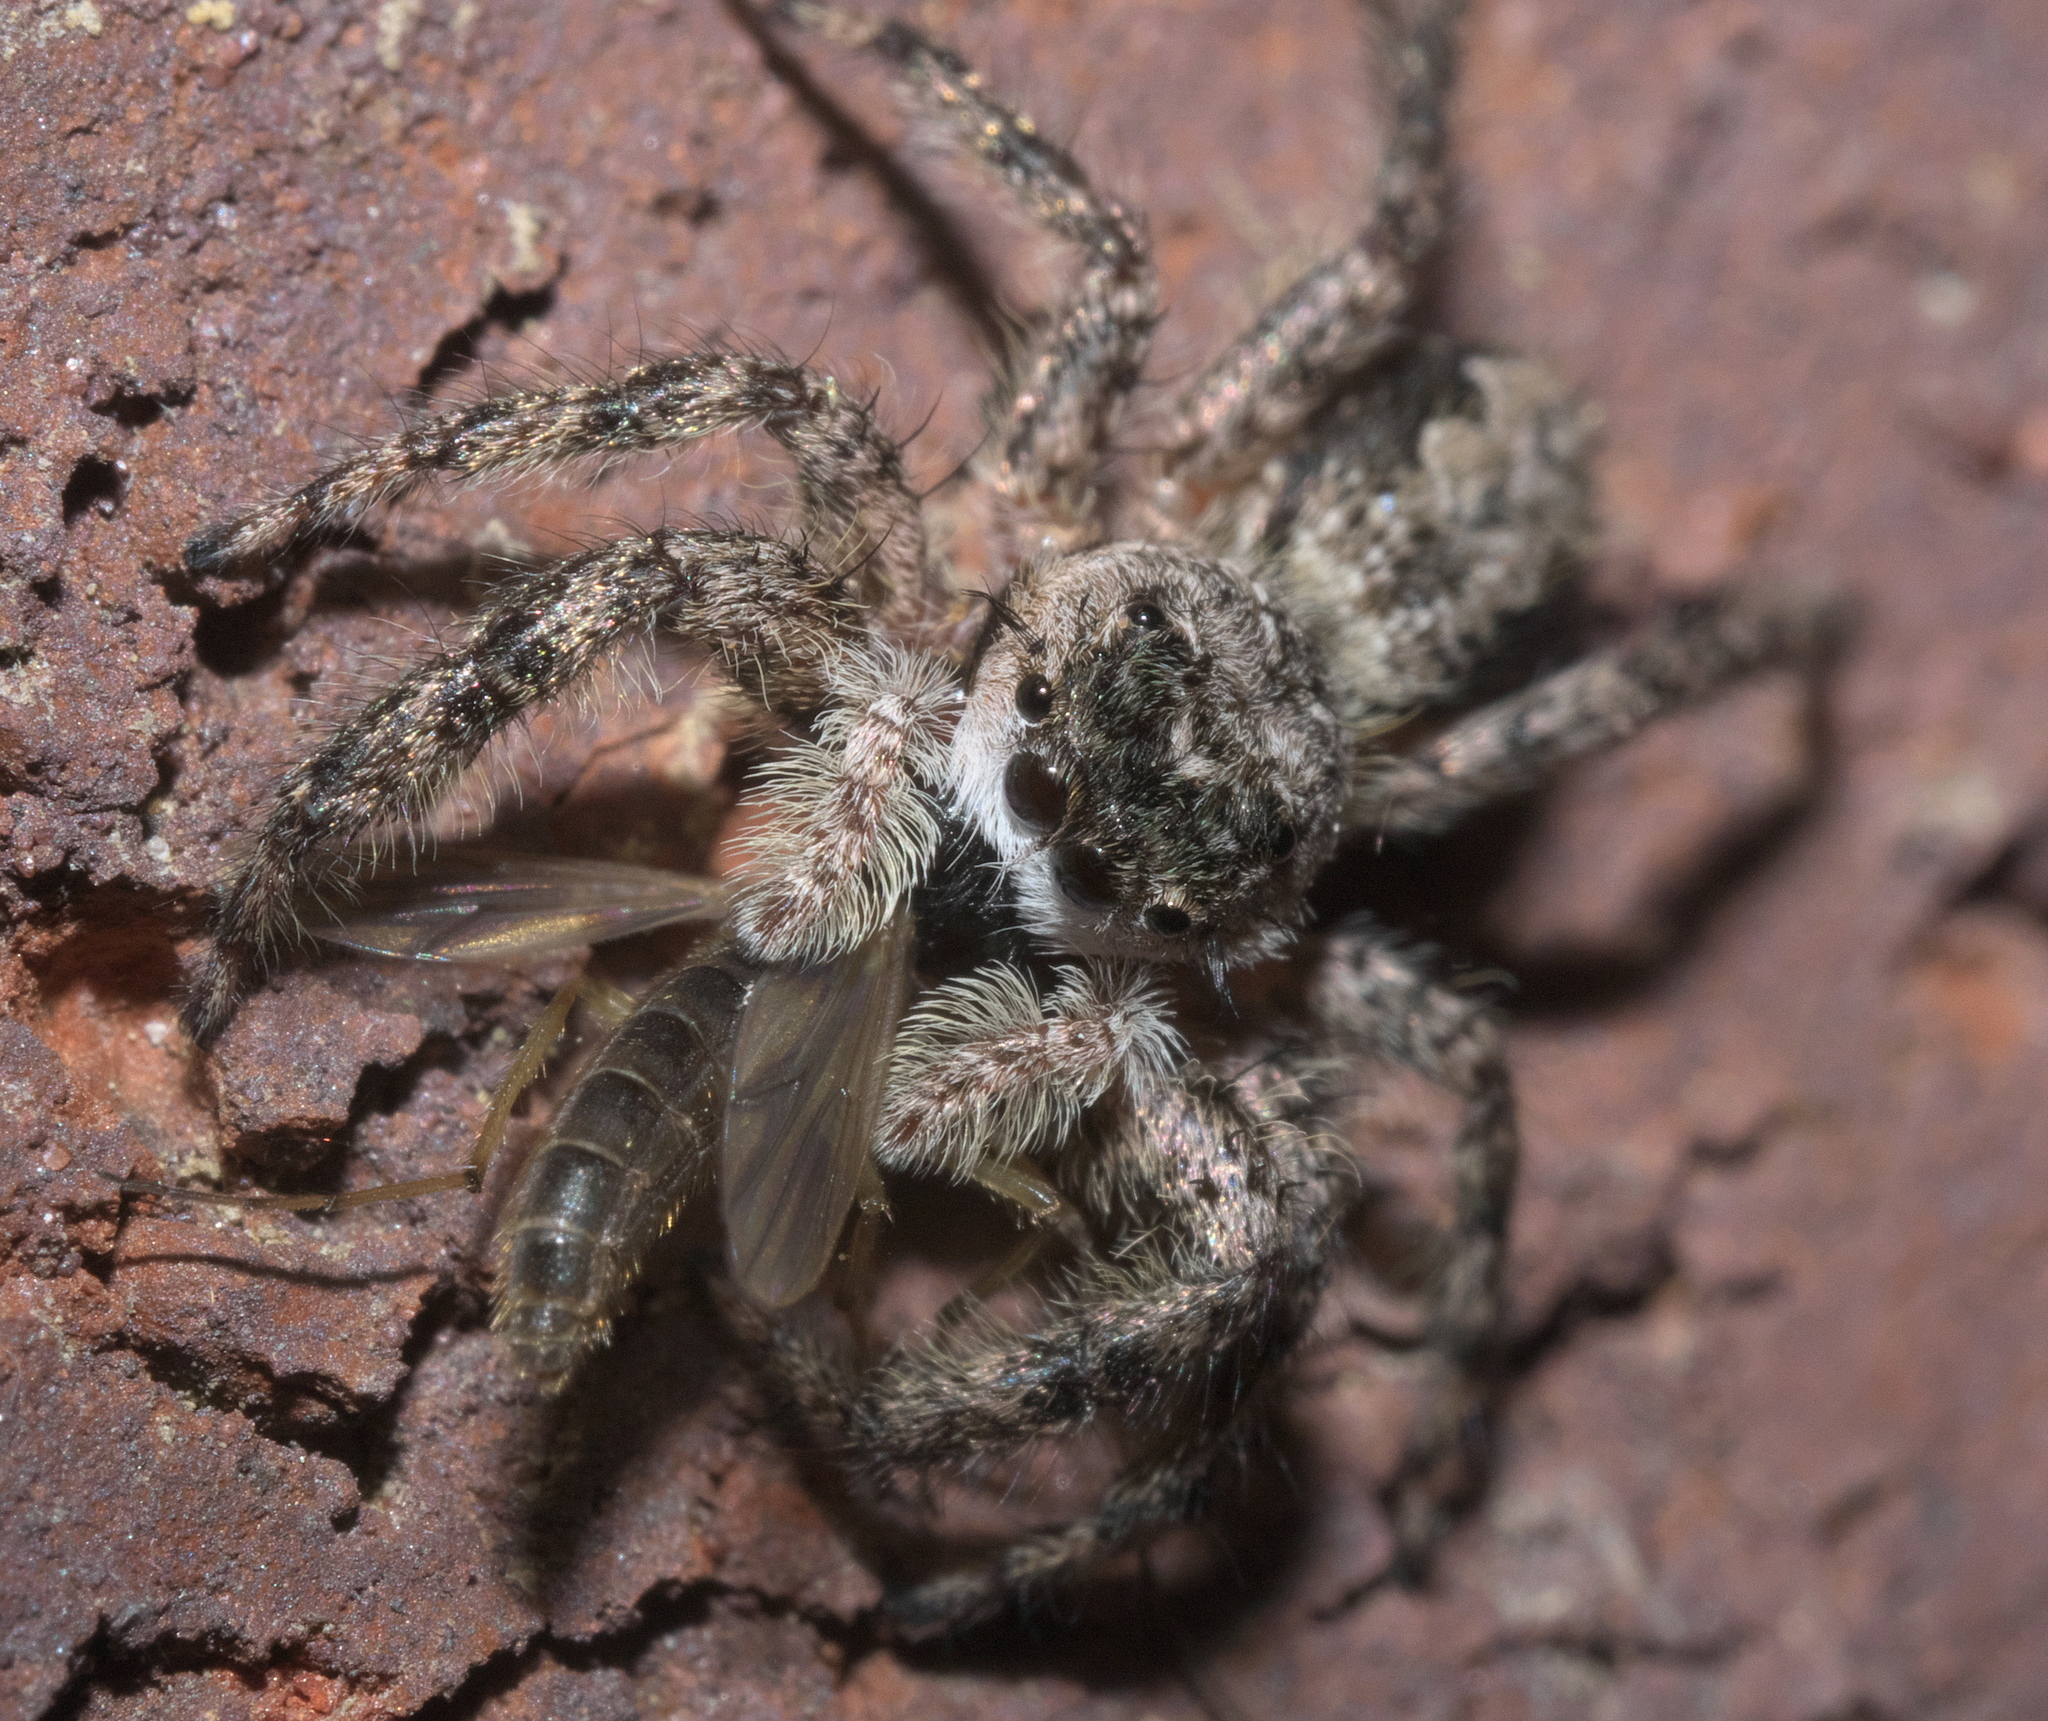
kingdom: Animalia
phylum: Arthropoda
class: Arachnida
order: Araneae
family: Salticidae
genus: Platycryptus
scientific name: Platycryptus undatus
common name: Tan jumping spider
